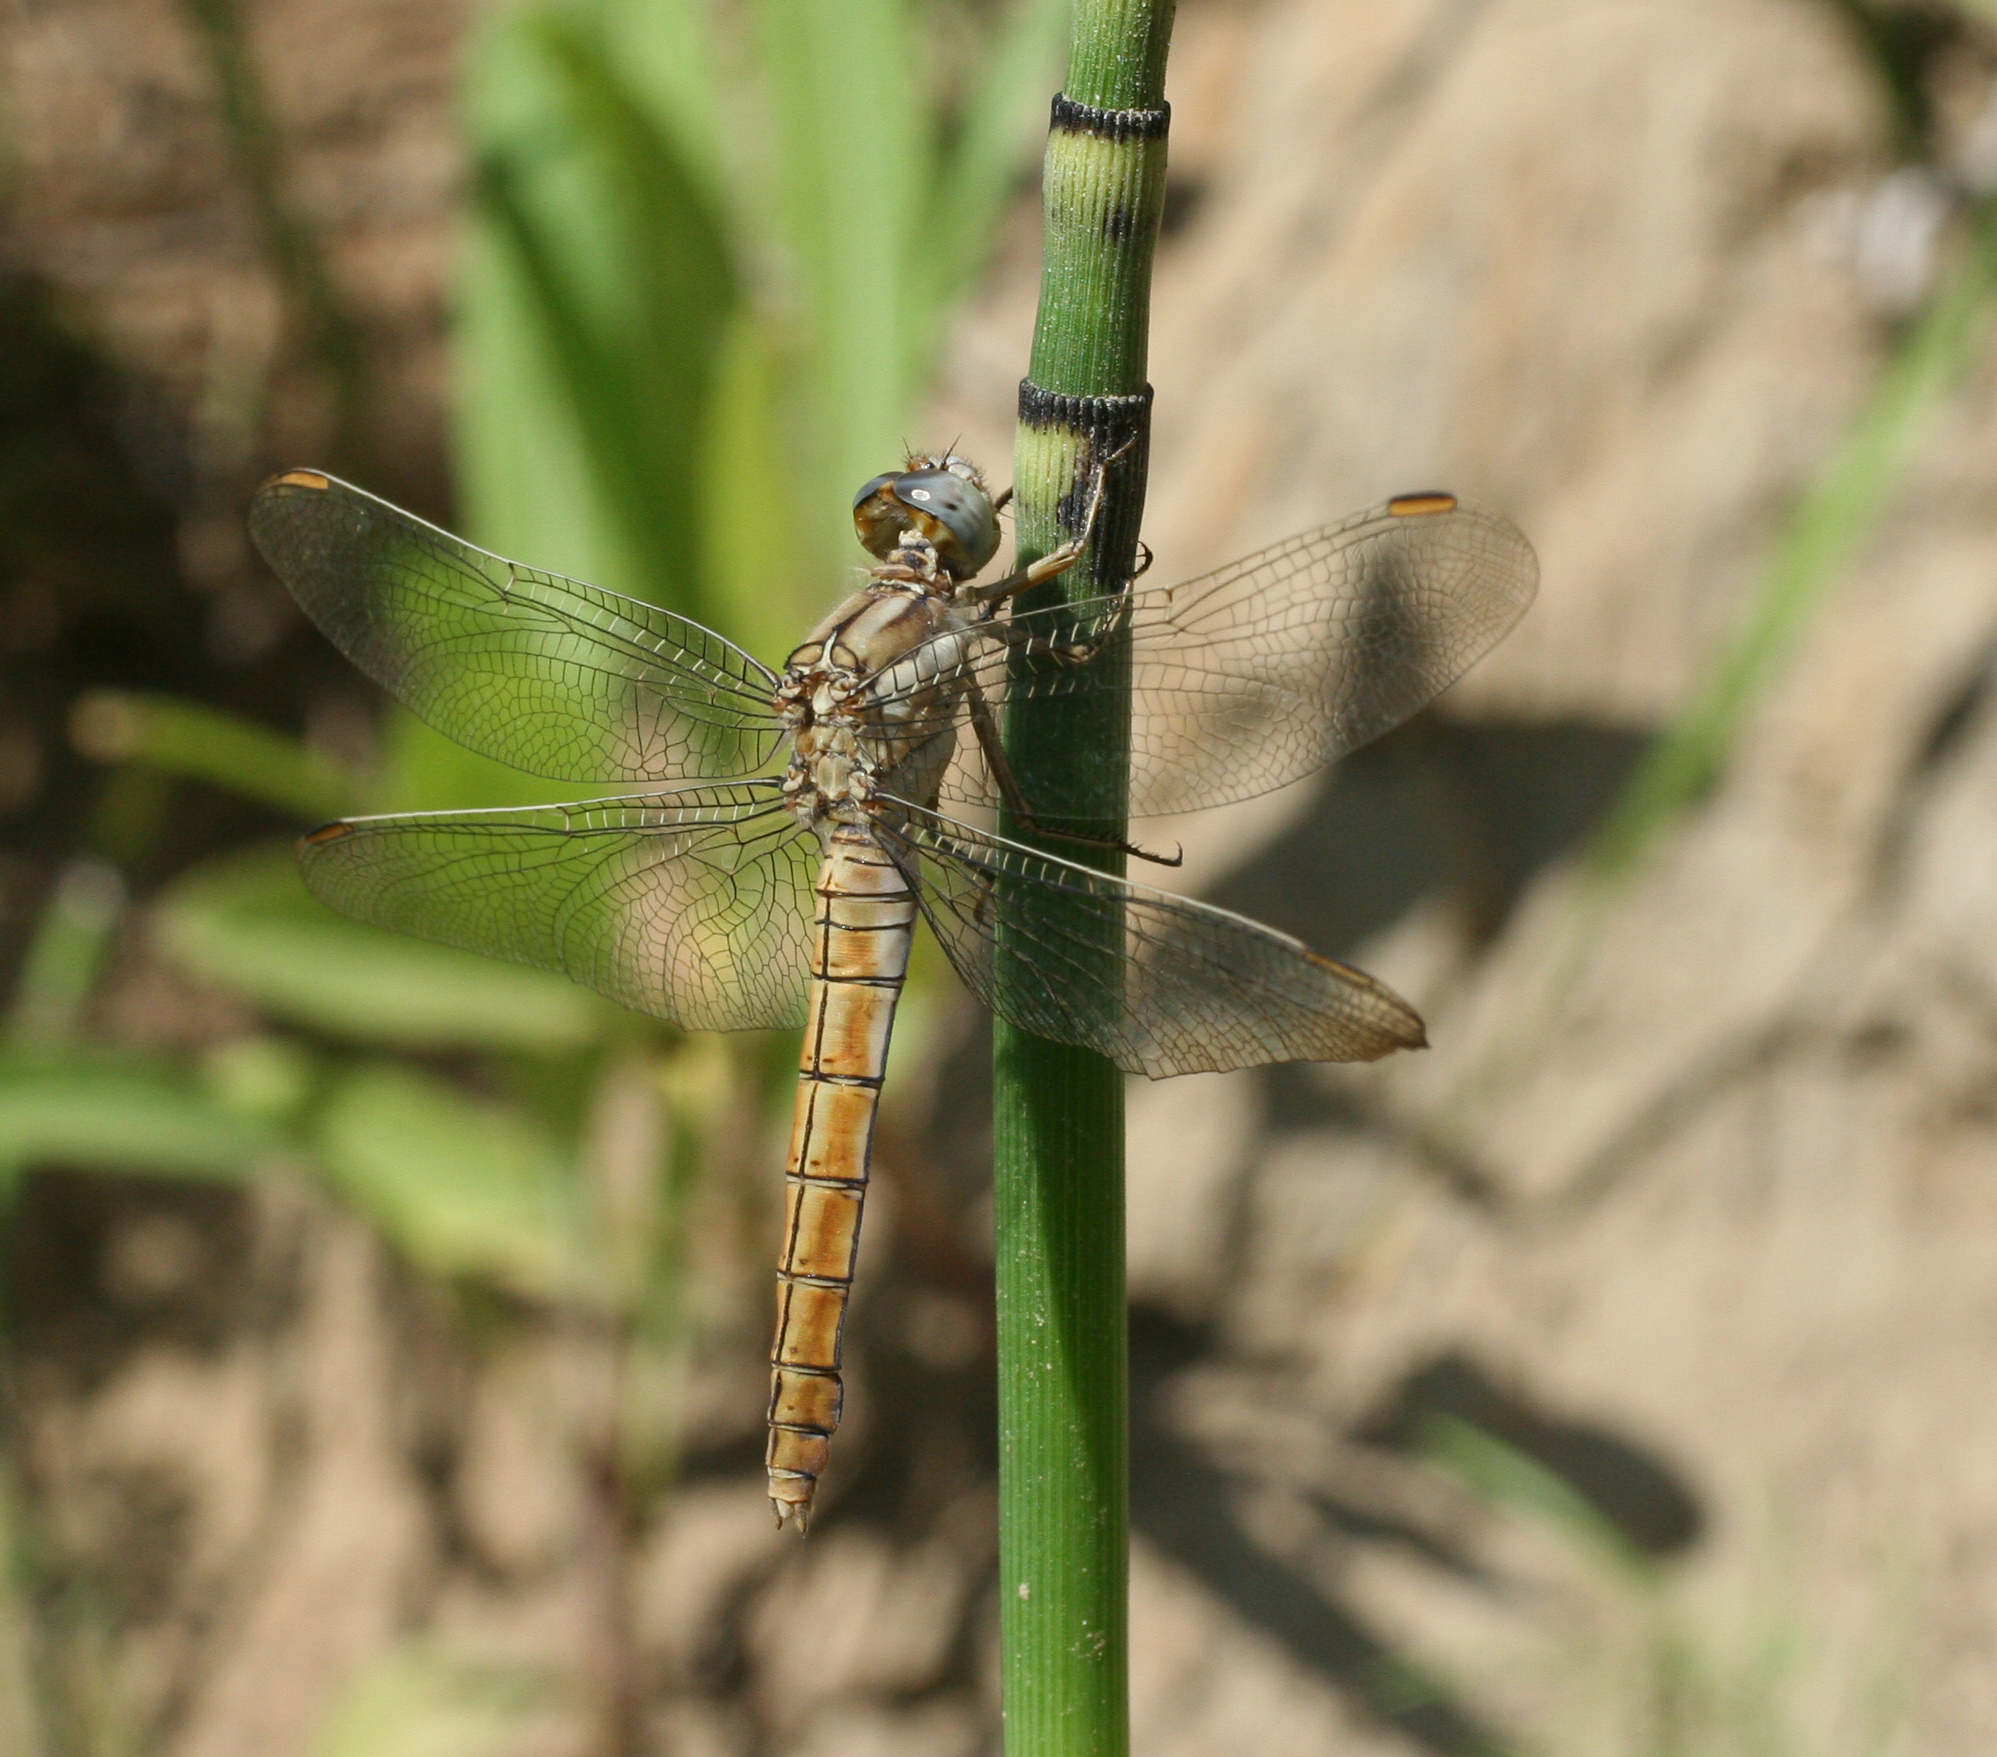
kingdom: Animalia
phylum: Arthropoda
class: Insecta
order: Odonata
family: Libellulidae
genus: Orthetrum
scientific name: Orthetrum brunneum
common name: Southern skimmer
